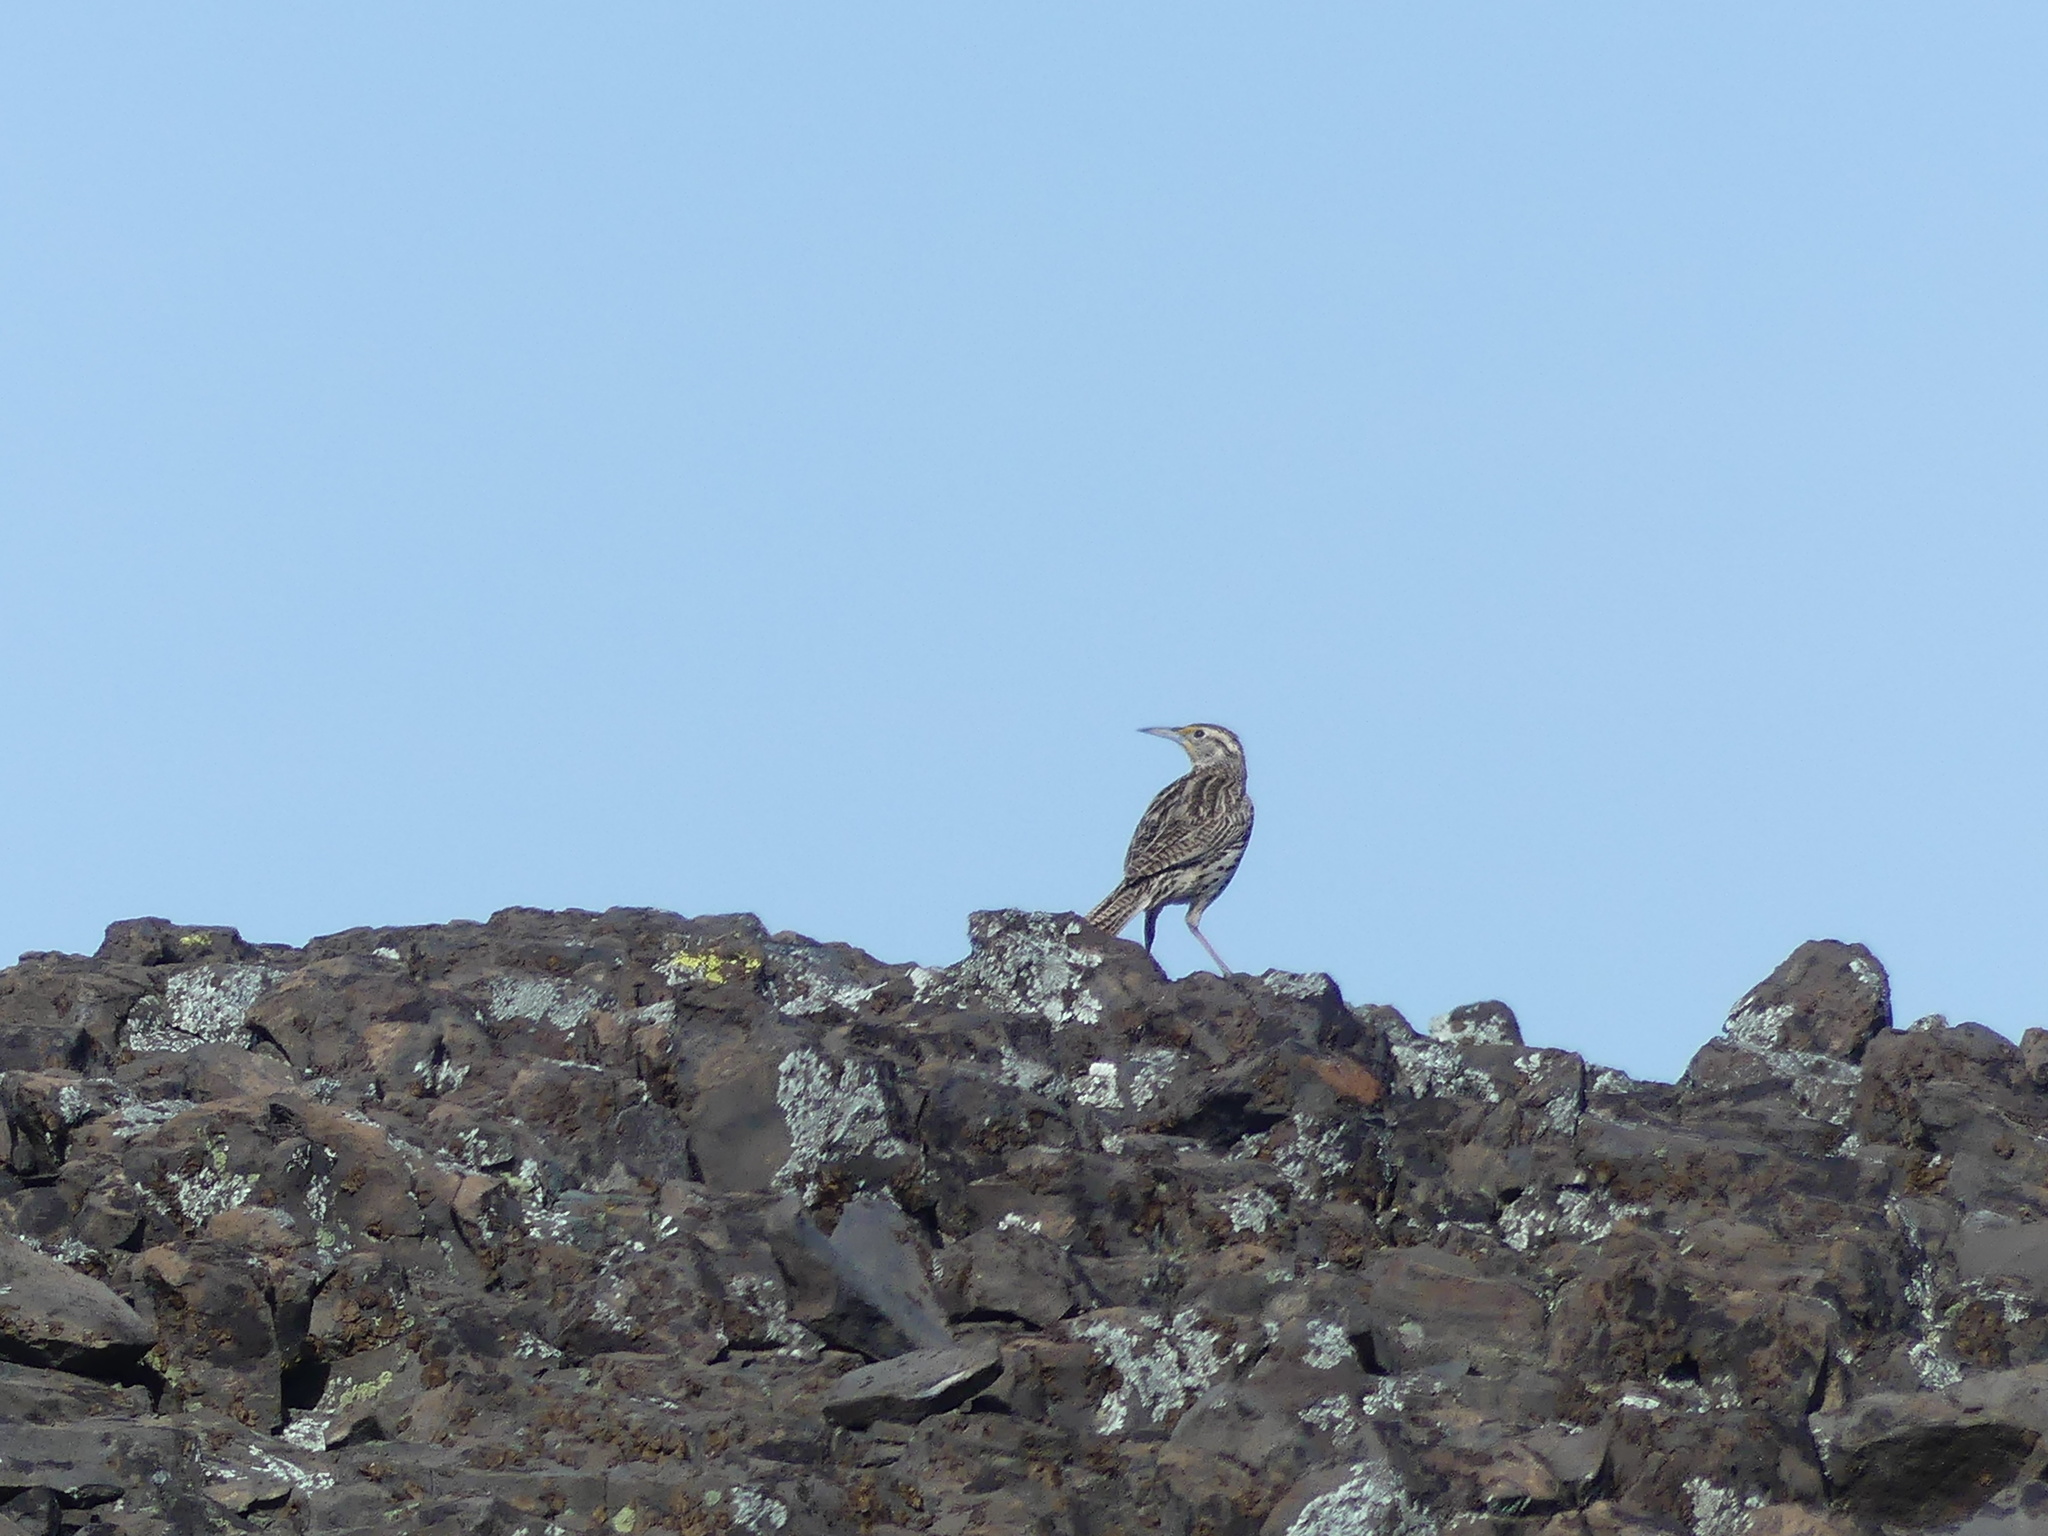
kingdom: Animalia
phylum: Chordata
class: Aves
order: Passeriformes
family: Icteridae
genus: Sturnella
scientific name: Sturnella neglecta
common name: Western meadowlark
